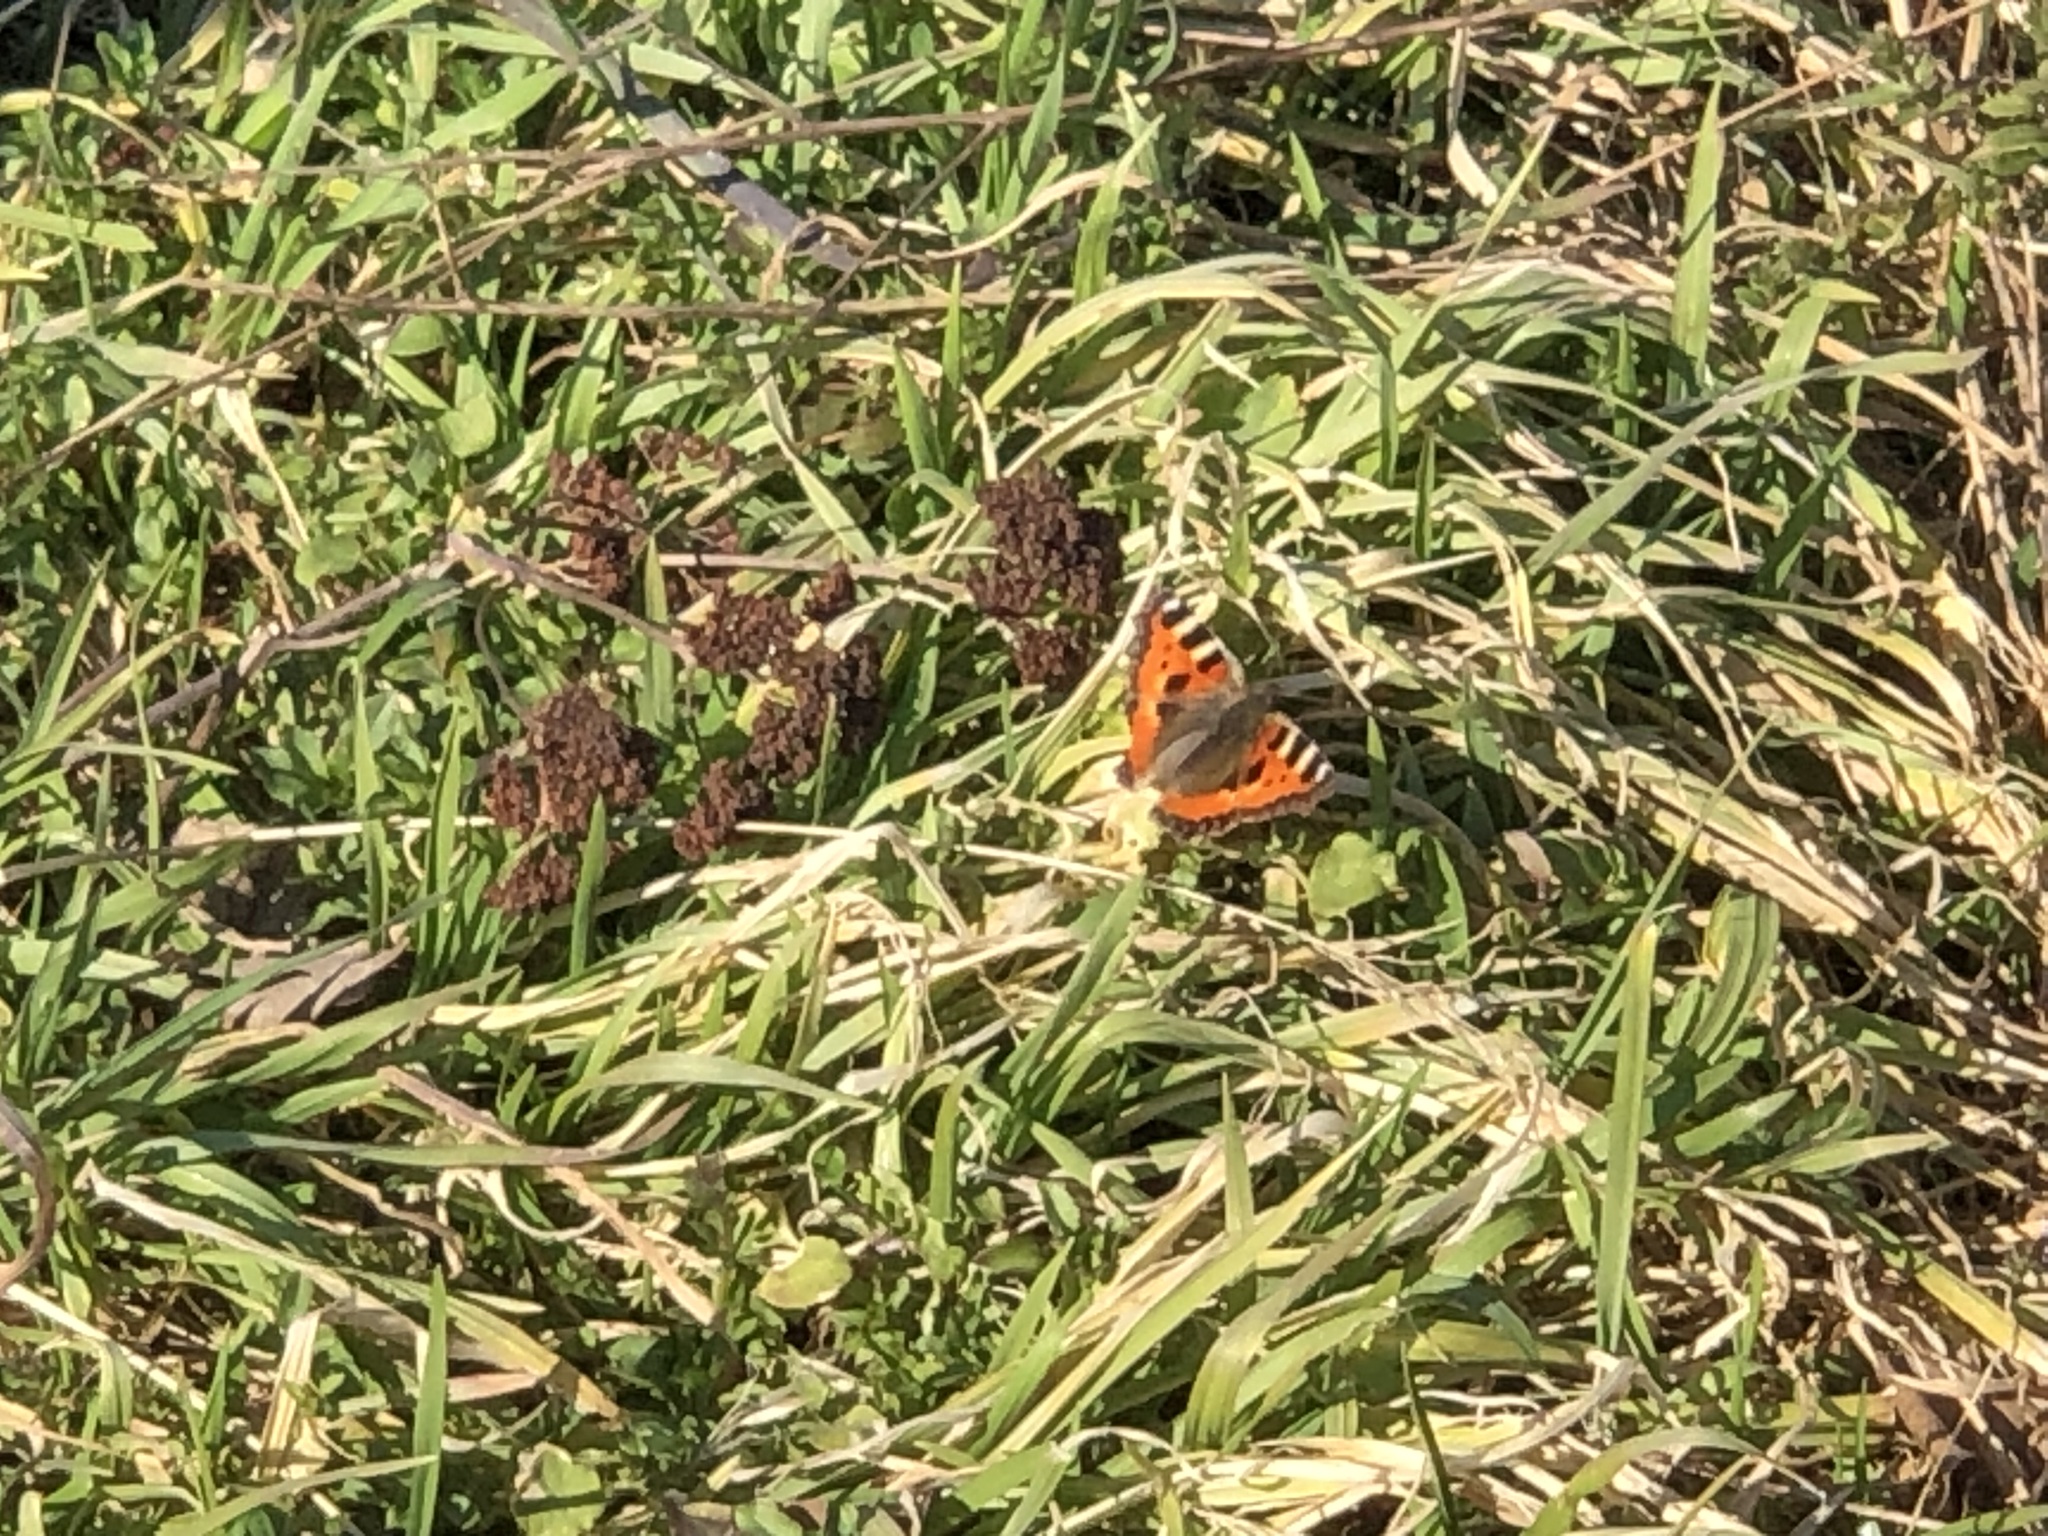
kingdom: Animalia
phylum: Arthropoda
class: Insecta
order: Lepidoptera
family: Nymphalidae
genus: Aglais
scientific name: Aglais urticae
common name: Small tortoiseshell
